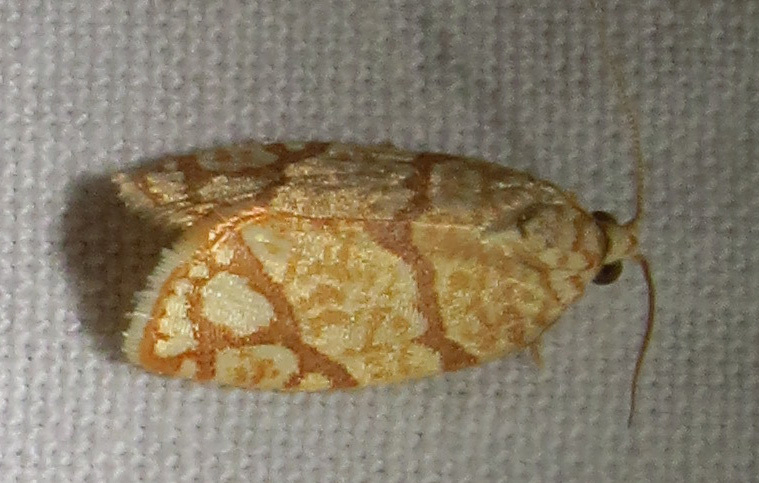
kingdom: Animalia
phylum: Arthropoda
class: Insecta
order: Lepidoptera
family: Tortricidae
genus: Argyrotaenia
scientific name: Argyrotaenia quercifoliana
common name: Yellow-winged oak leafroller moth
